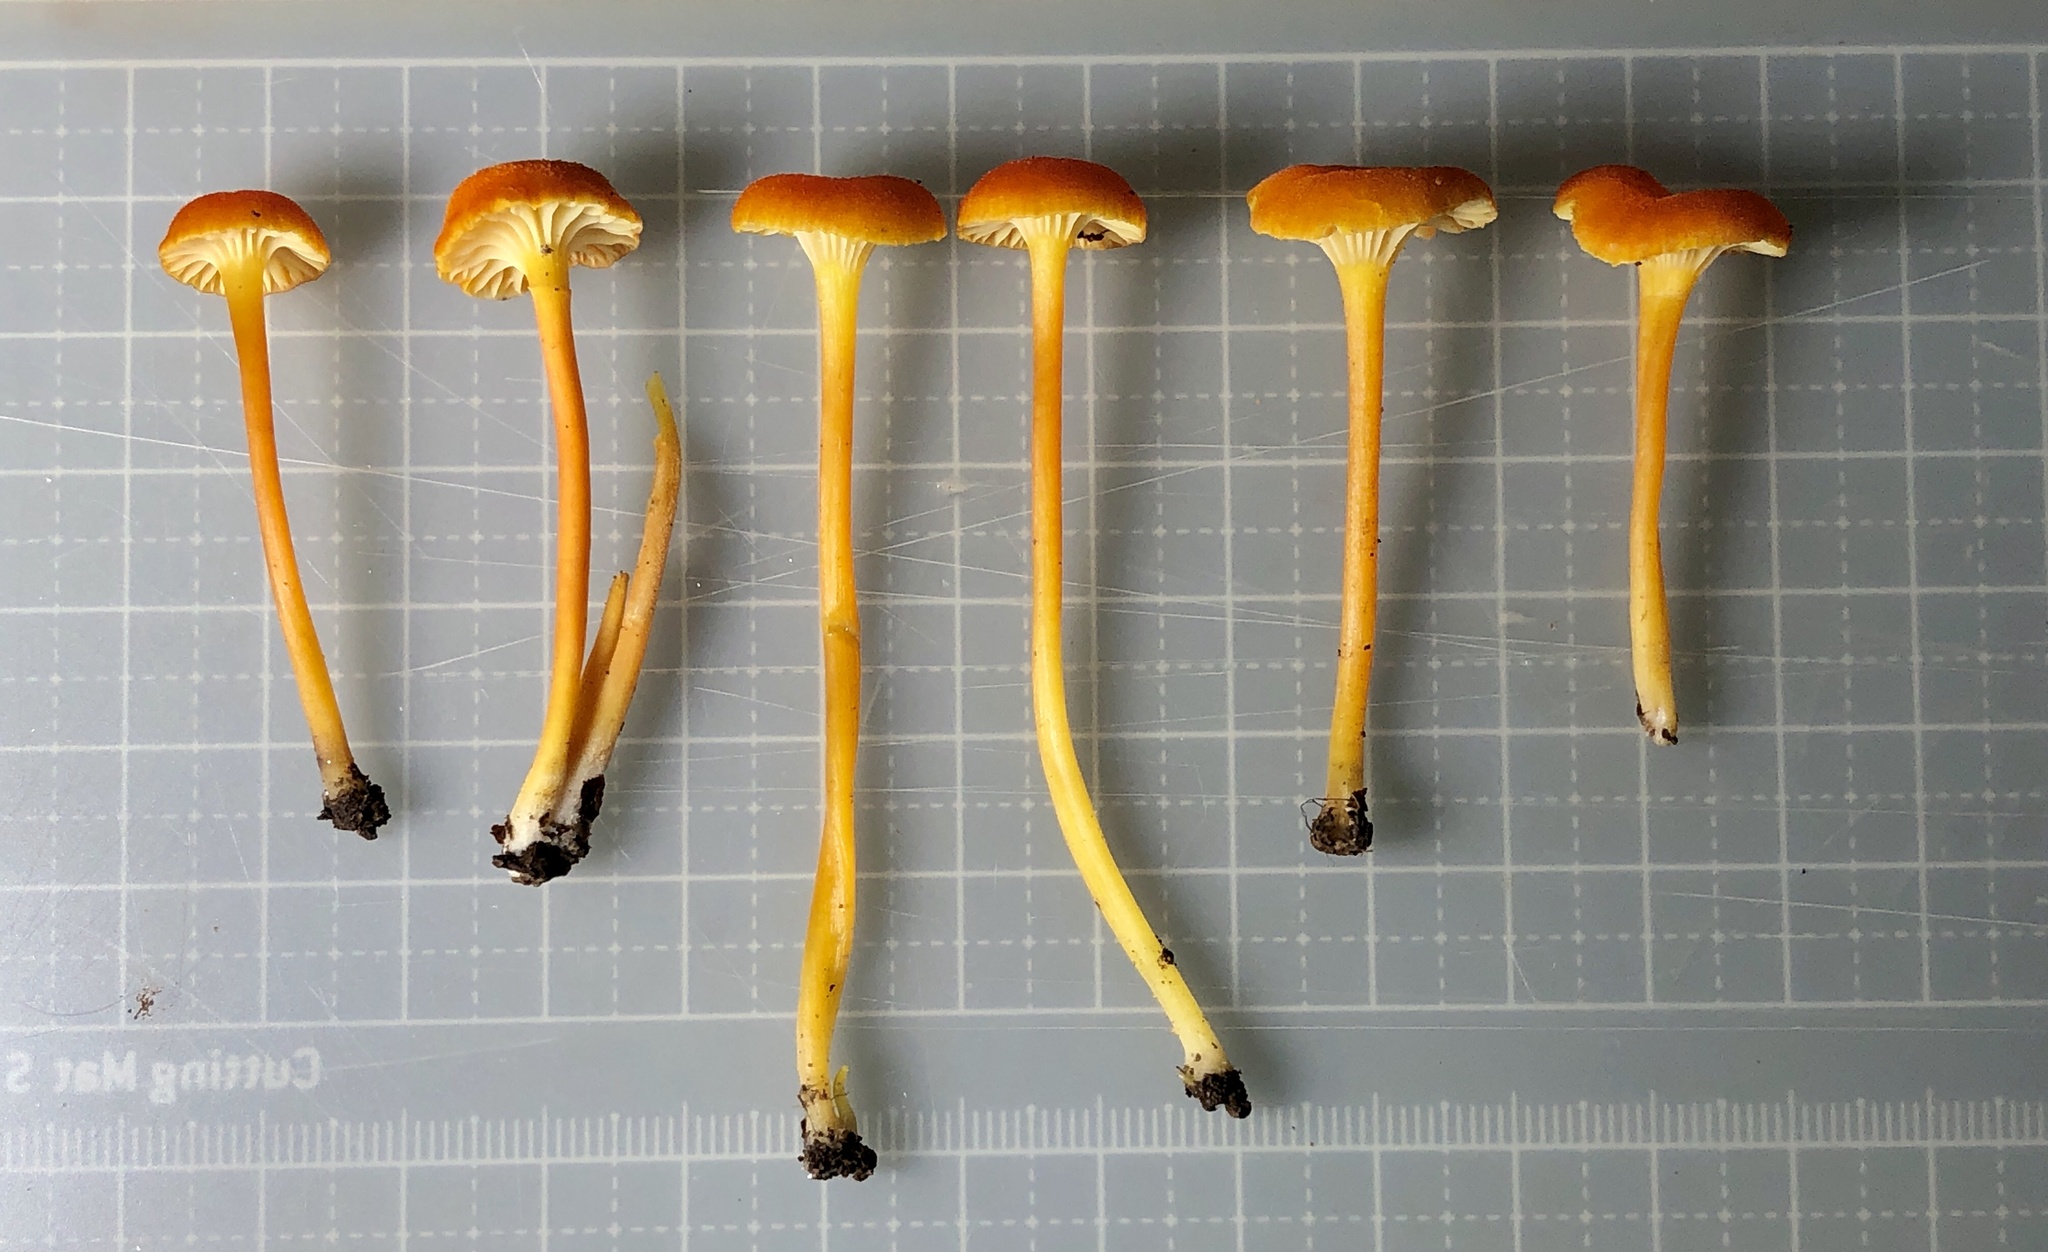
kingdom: Fungi
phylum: Basidiomycota
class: Agaricomycetes
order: Agaricales
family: Hygrophoraceae
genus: Hygrocybe
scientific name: Hygrocybe cantharellus
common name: Goblet waxcap
